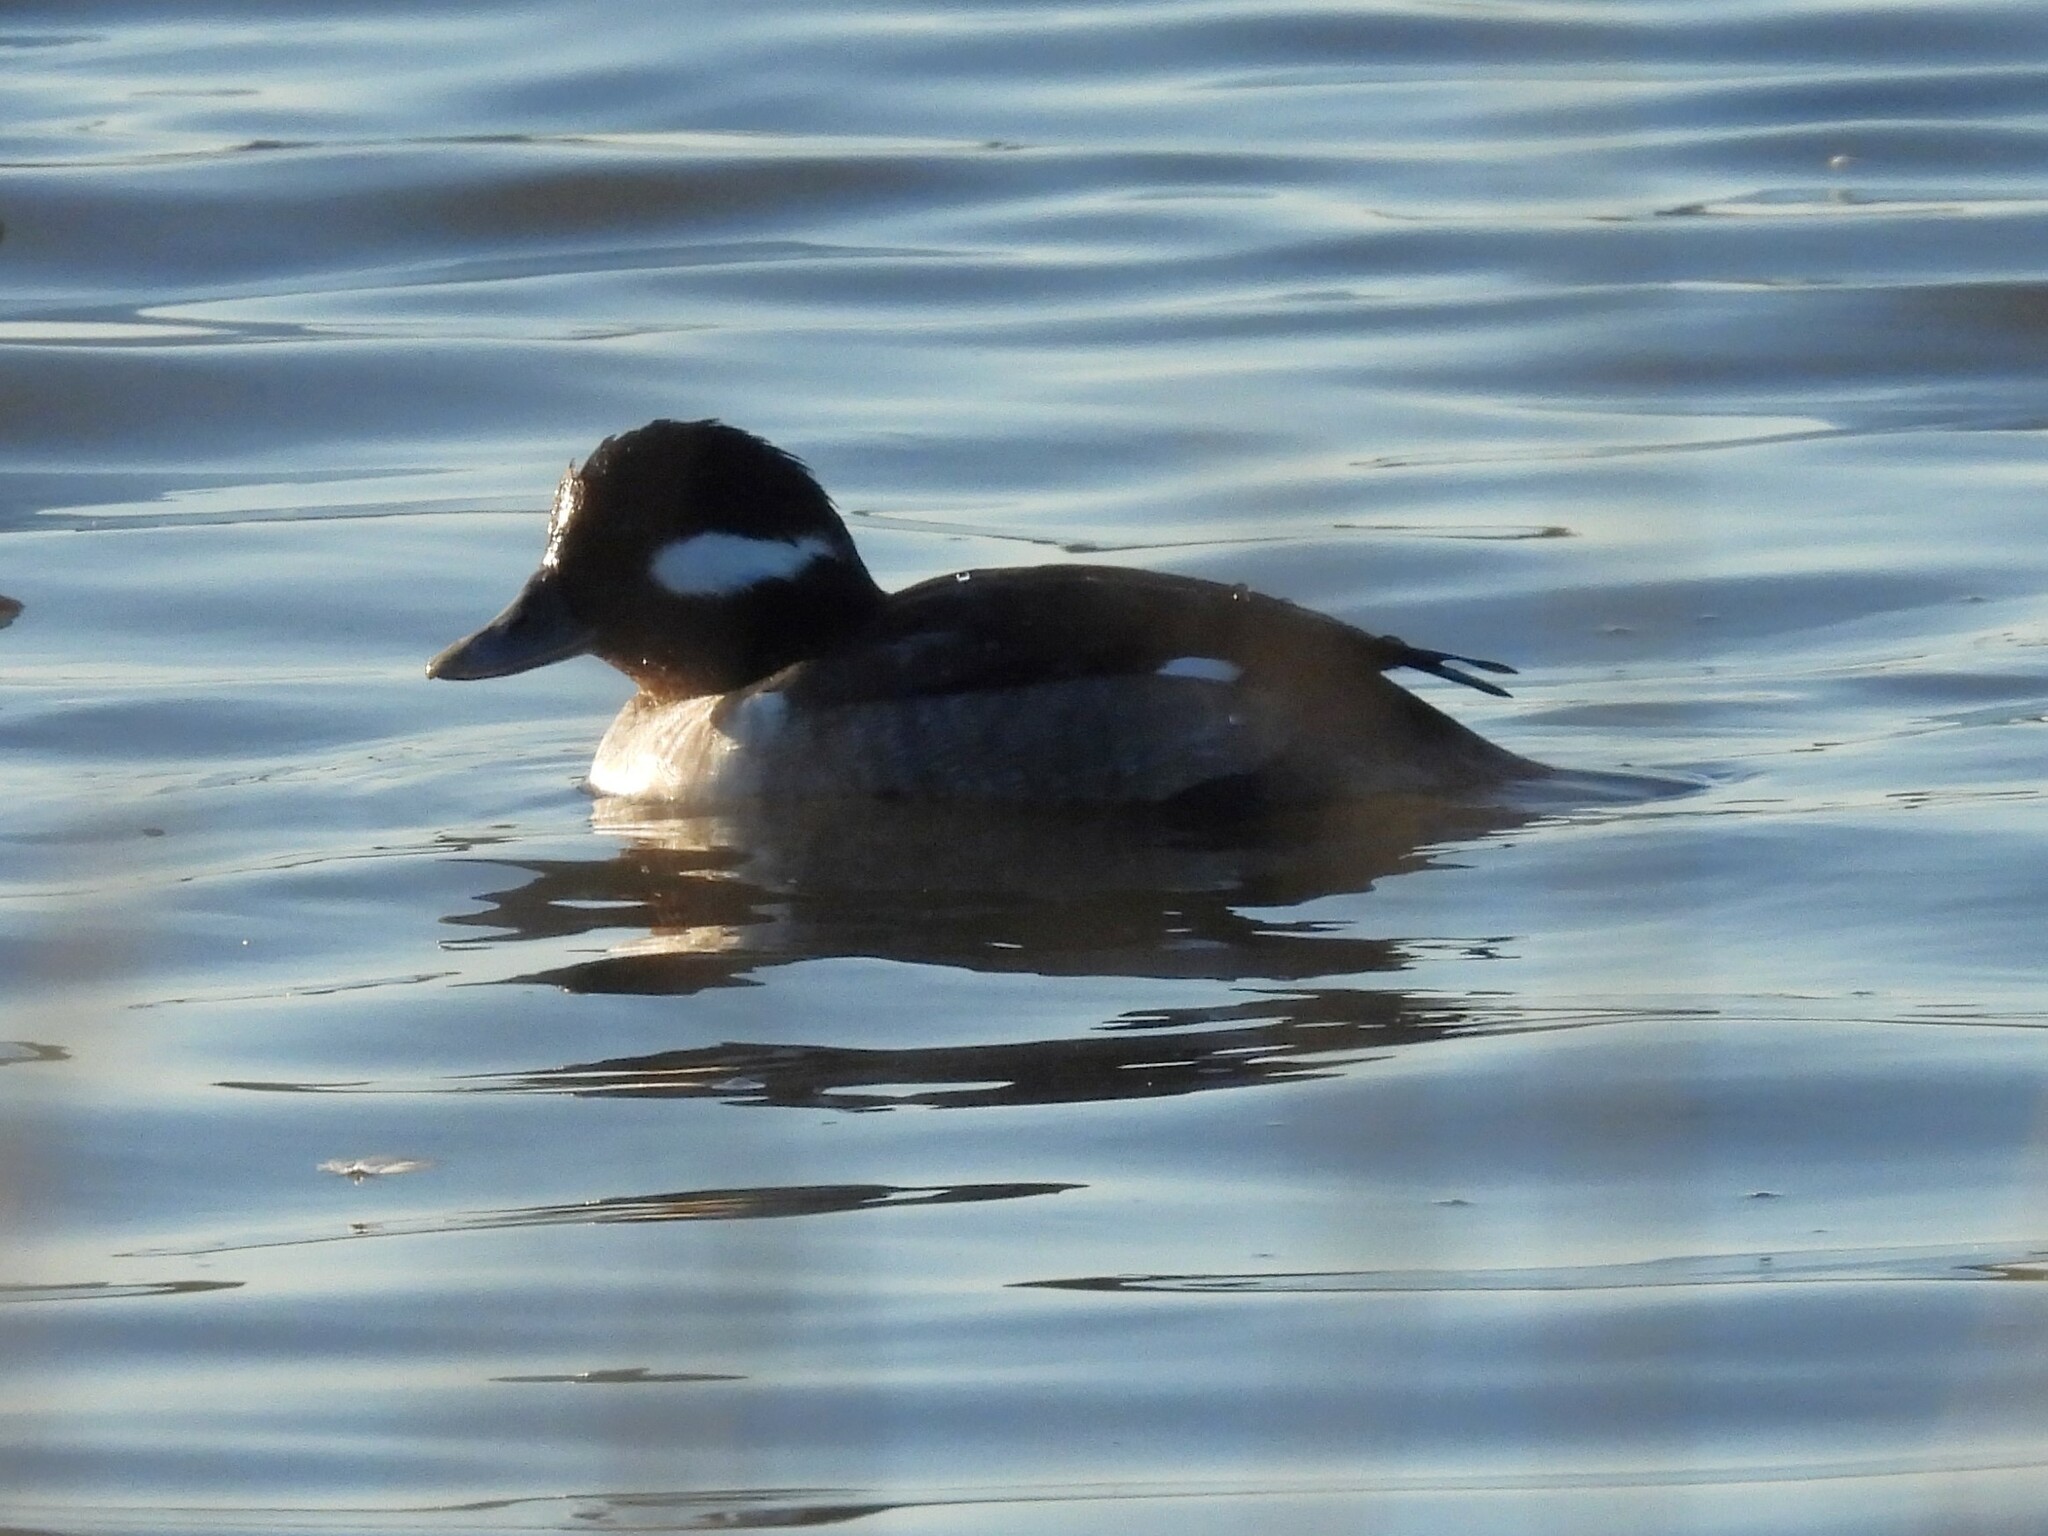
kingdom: Animalia
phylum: Chordata
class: Aves
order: Anseriformes
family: Anatidae
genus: Bucephala
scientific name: Bucephala albeola
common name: Bufflehead
